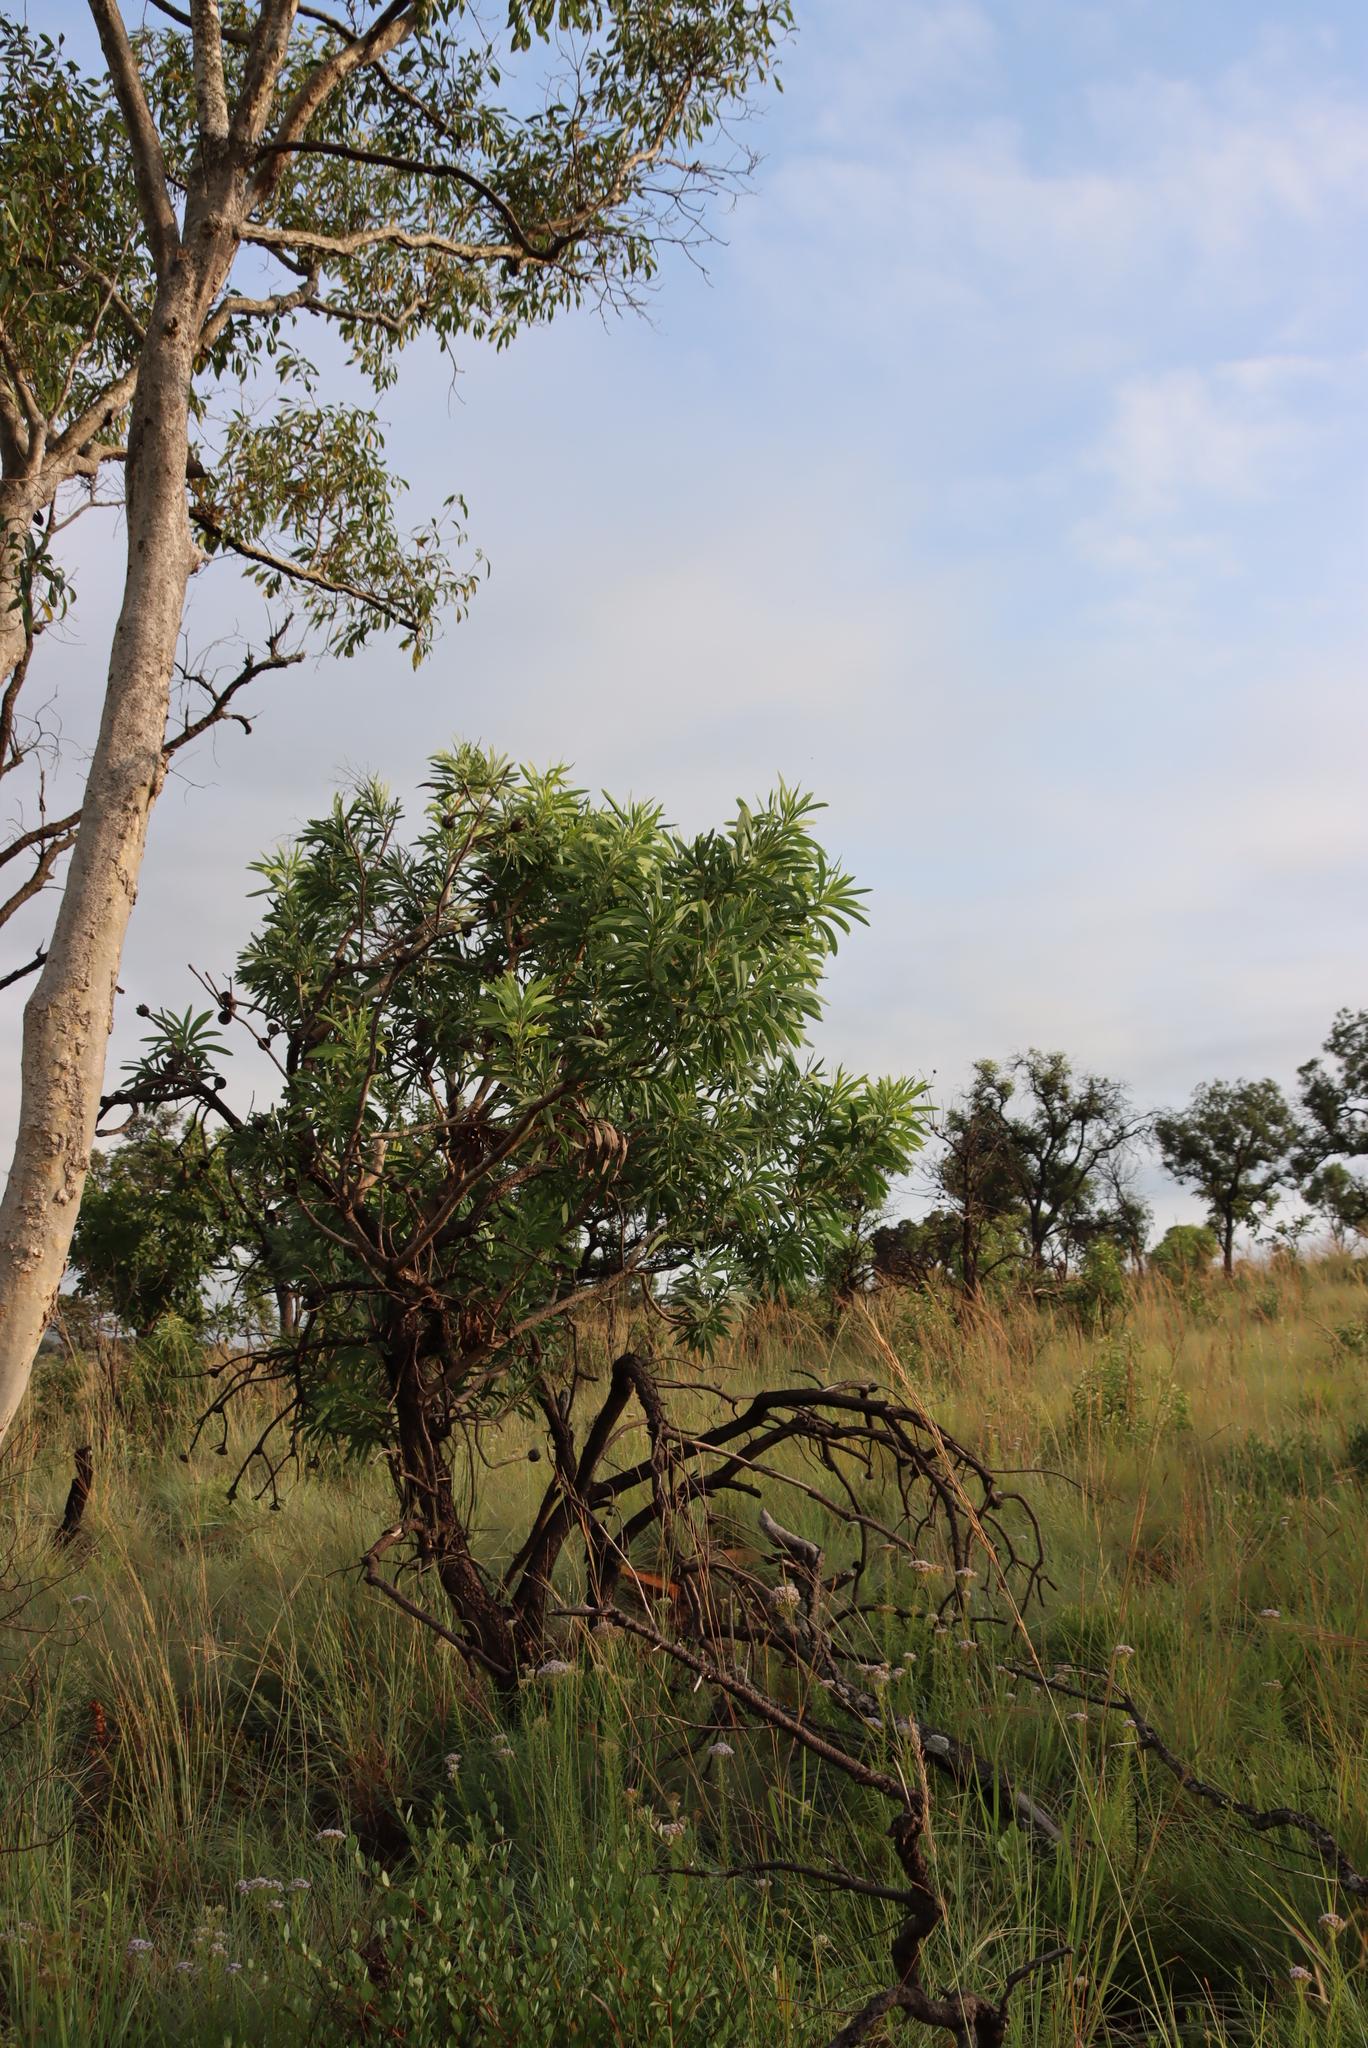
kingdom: Plantae
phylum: Tracheophyta
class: Magnoliopsida
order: Proteales
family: Proteaceae
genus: Protea
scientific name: Protea caffra
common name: Common sugarbush
